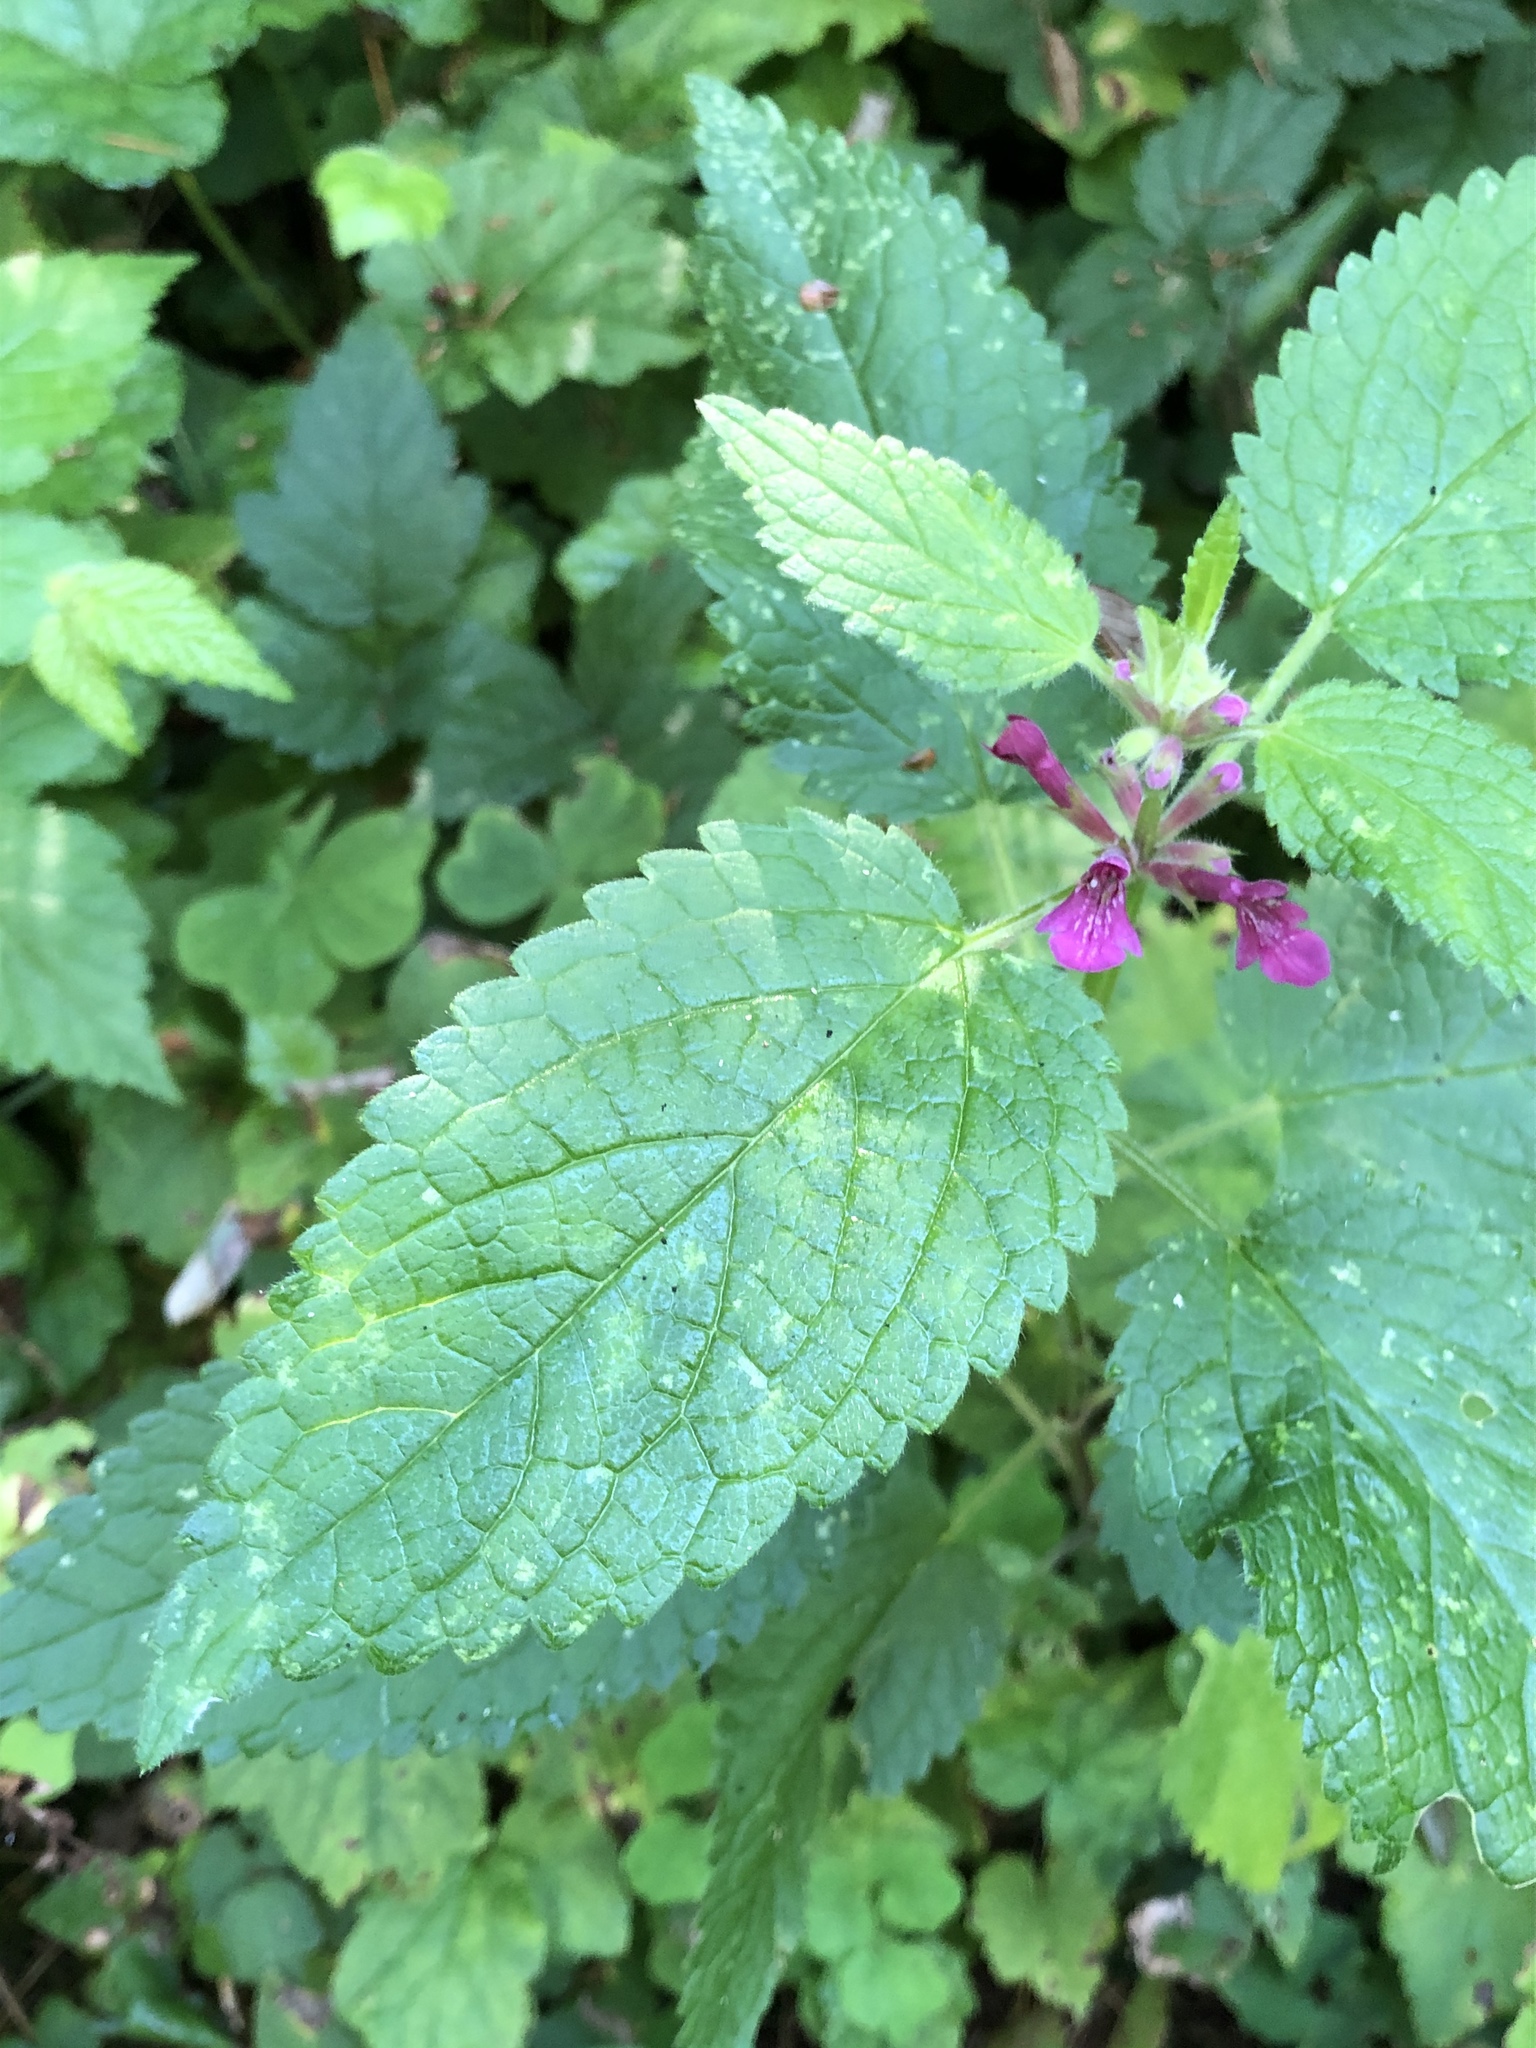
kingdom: Plantae
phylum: Tracheophyta
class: Magnoliopsida
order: Lamiales
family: Lamiaceae
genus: Stachys
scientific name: Stachys mexicana
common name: Mexican hedge-nettle
